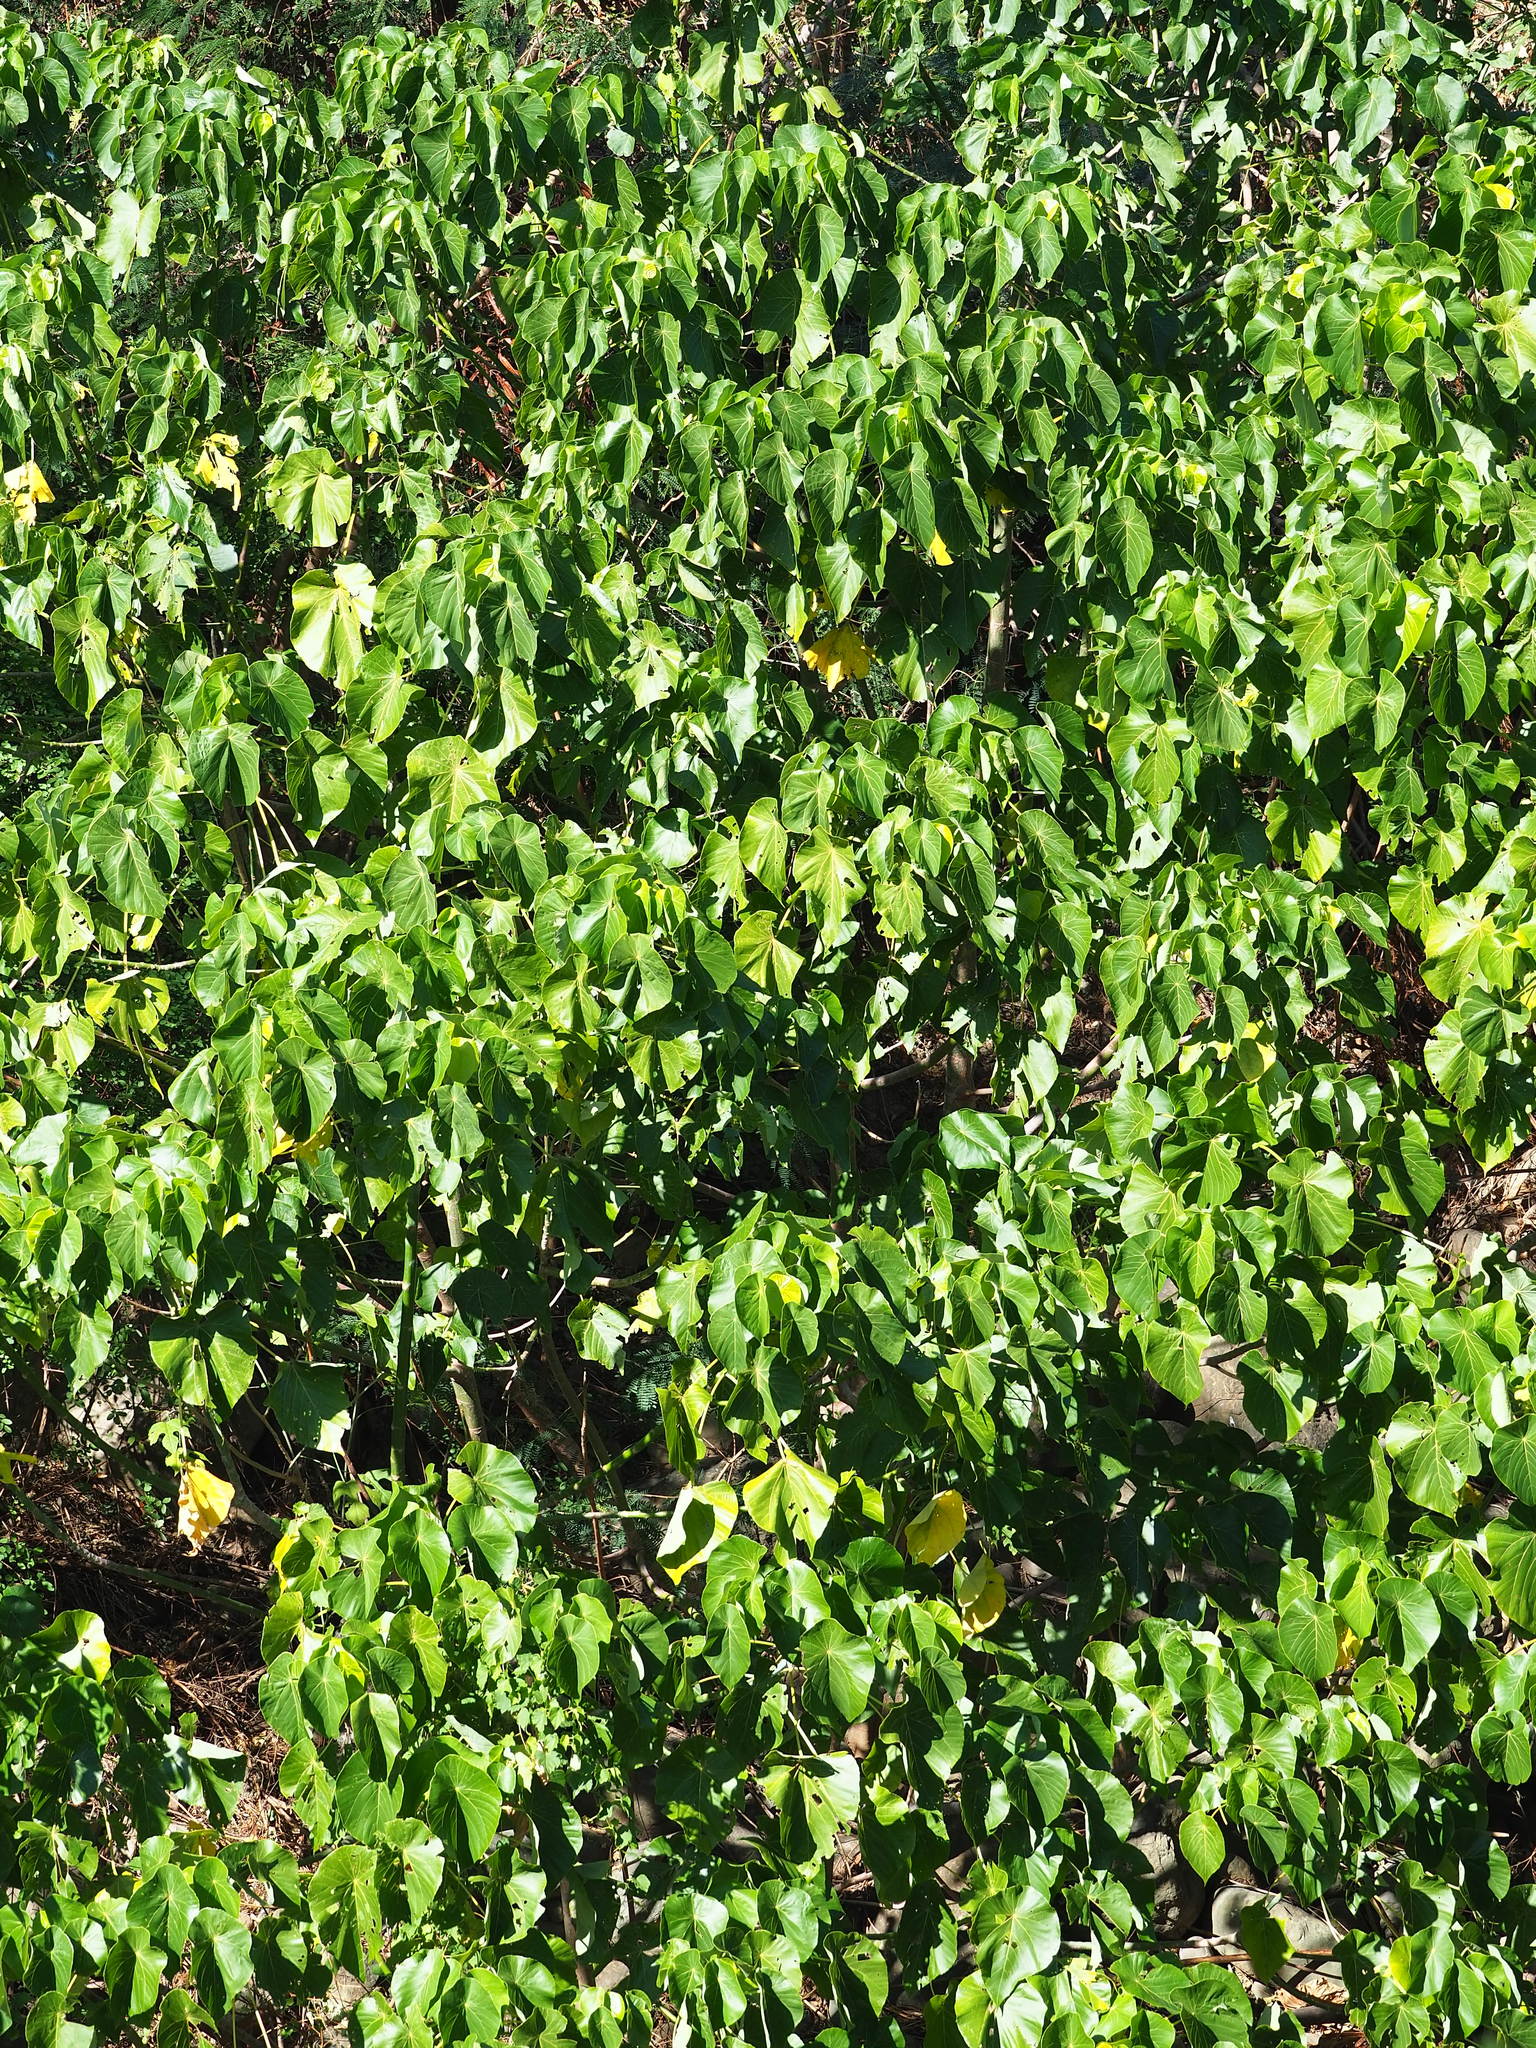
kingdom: Plantae
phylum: Tracheophyta
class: Magnoliopsida
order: Malpighiales
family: Euphorbiaceae
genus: Macaranga
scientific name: Macaranga tanarius
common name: Parasol leaf tree
